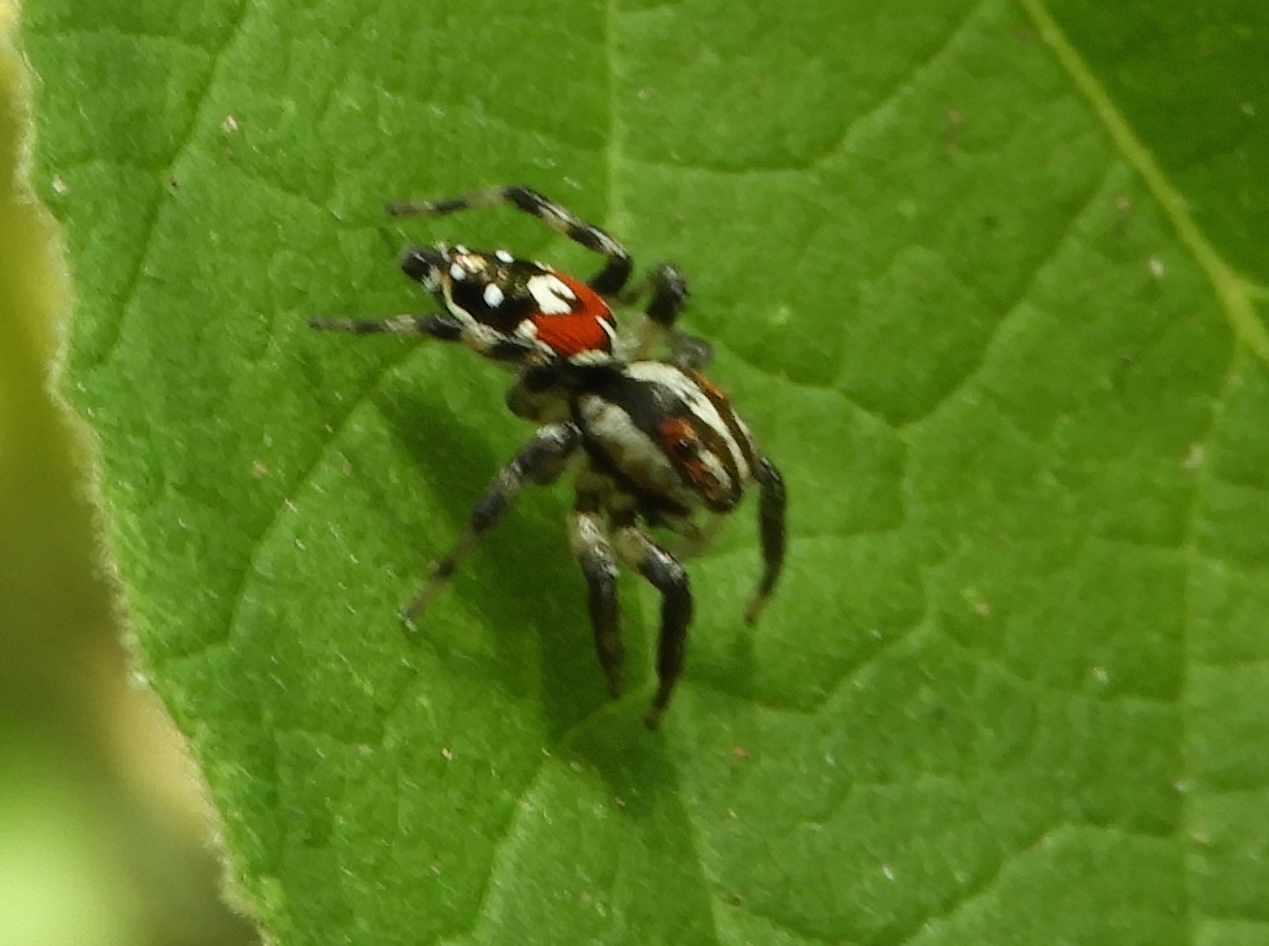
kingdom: Animalia
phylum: Arthropoda
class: Arachnida
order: Araneae
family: Salticidae
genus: Nycerella
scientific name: Nycerella delecta
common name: Jumping spiders
